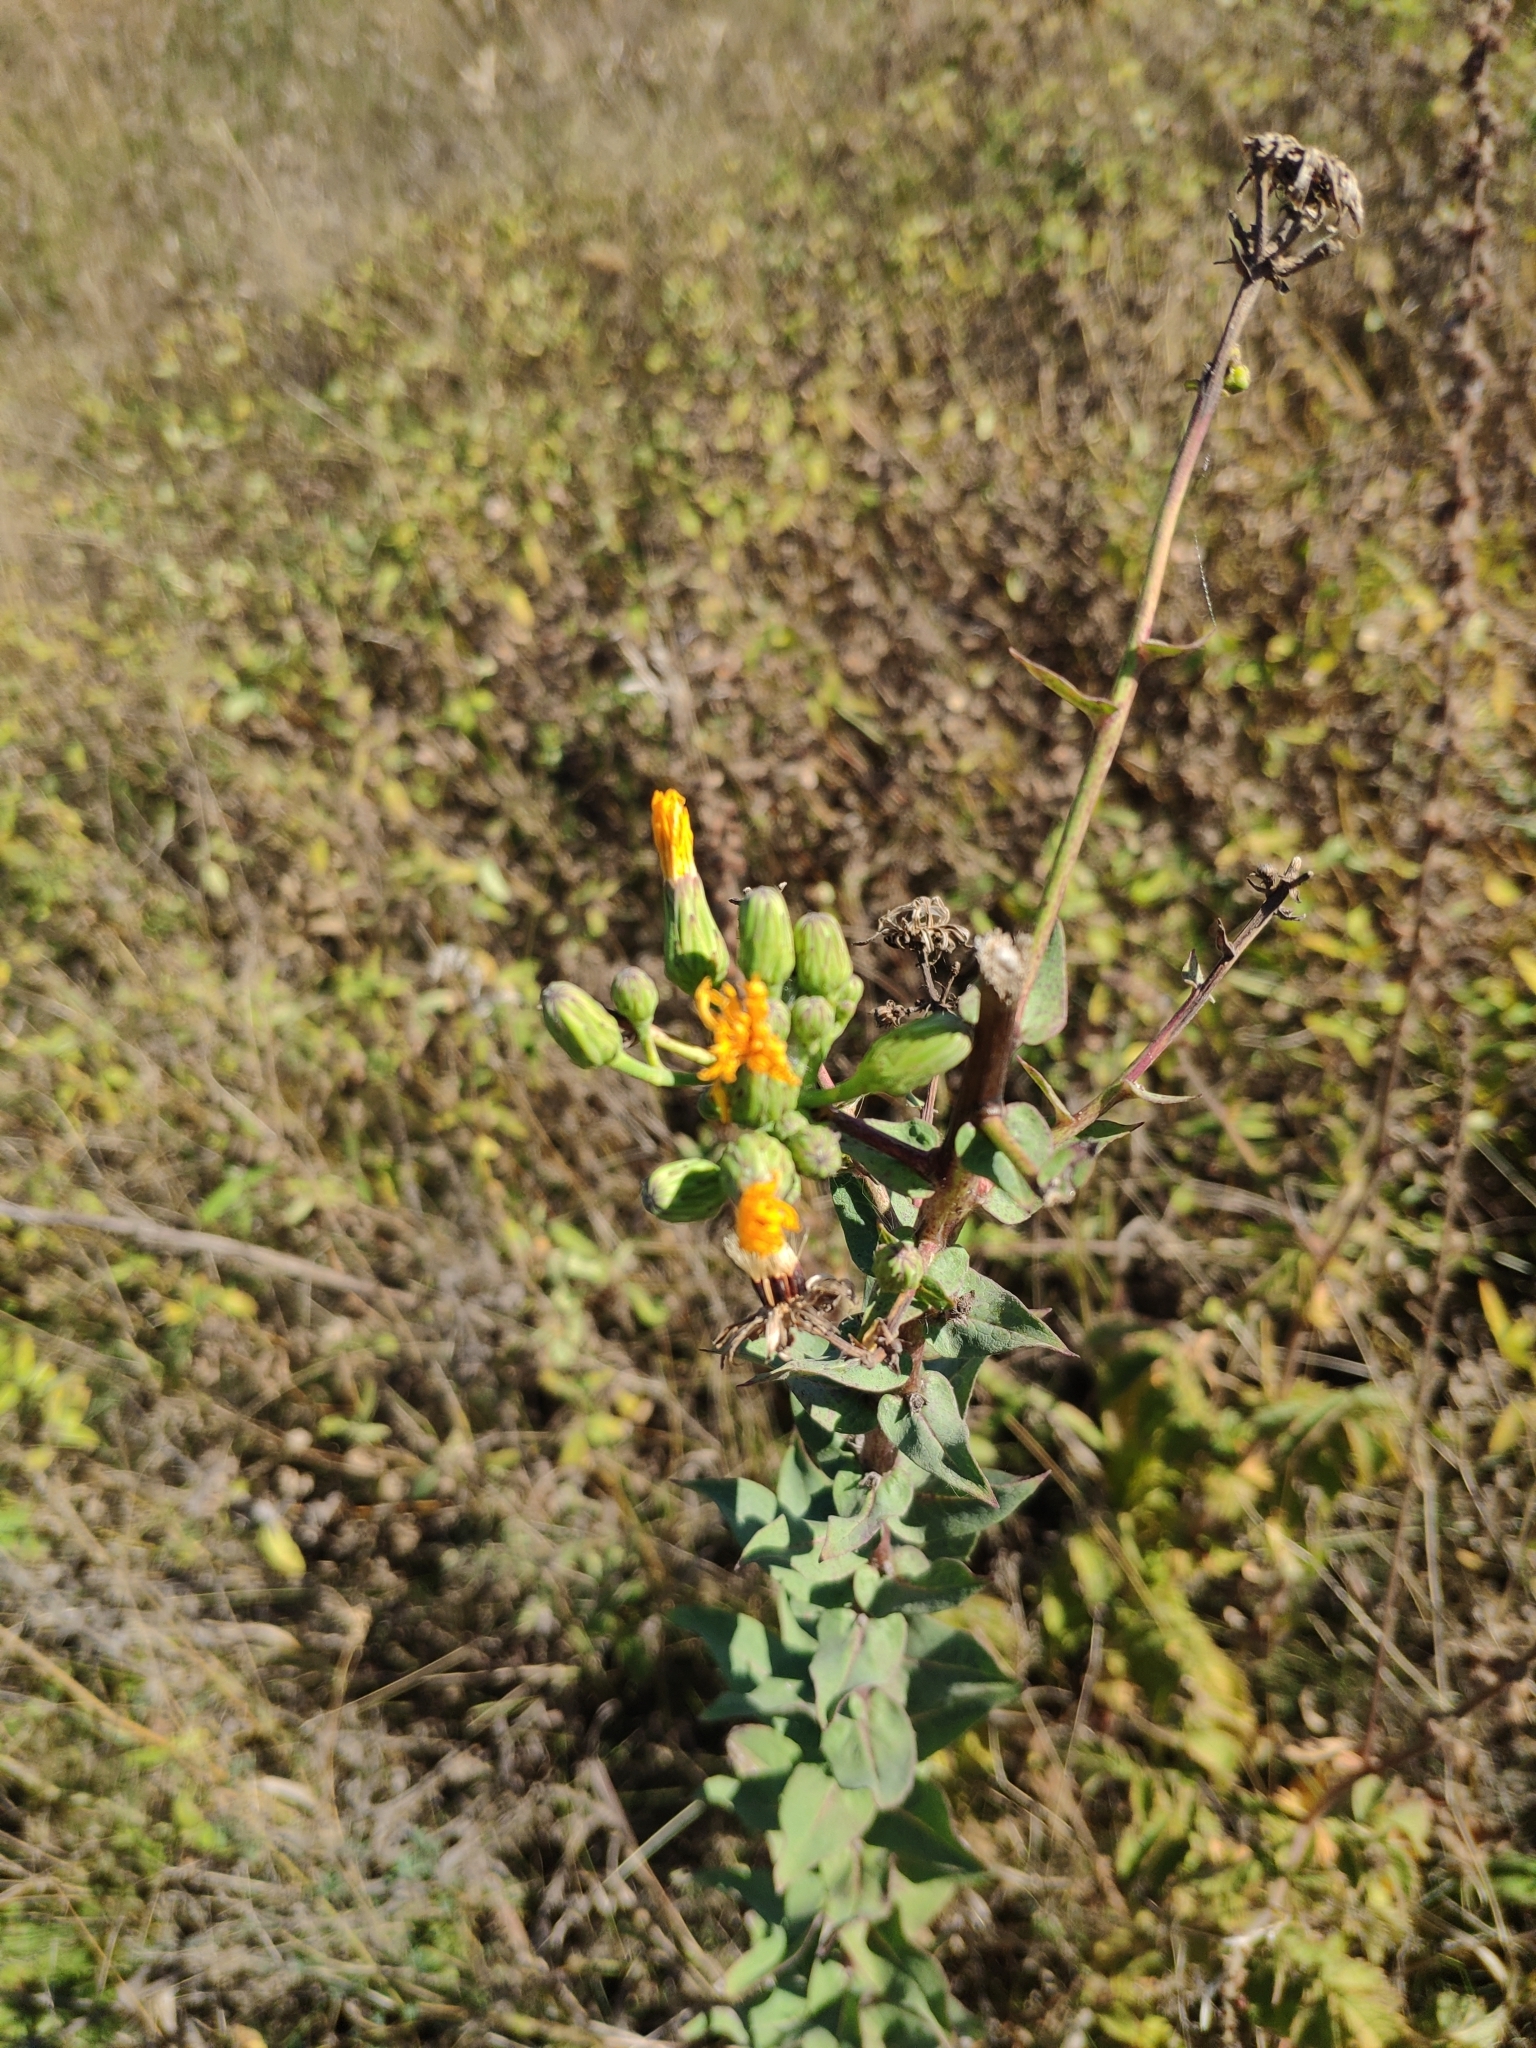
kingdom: Plantae
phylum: Tracheophyta
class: Magnoliopsida
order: Asterales
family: Asteraceae
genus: Hieracium
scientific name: Hieracium virosum
